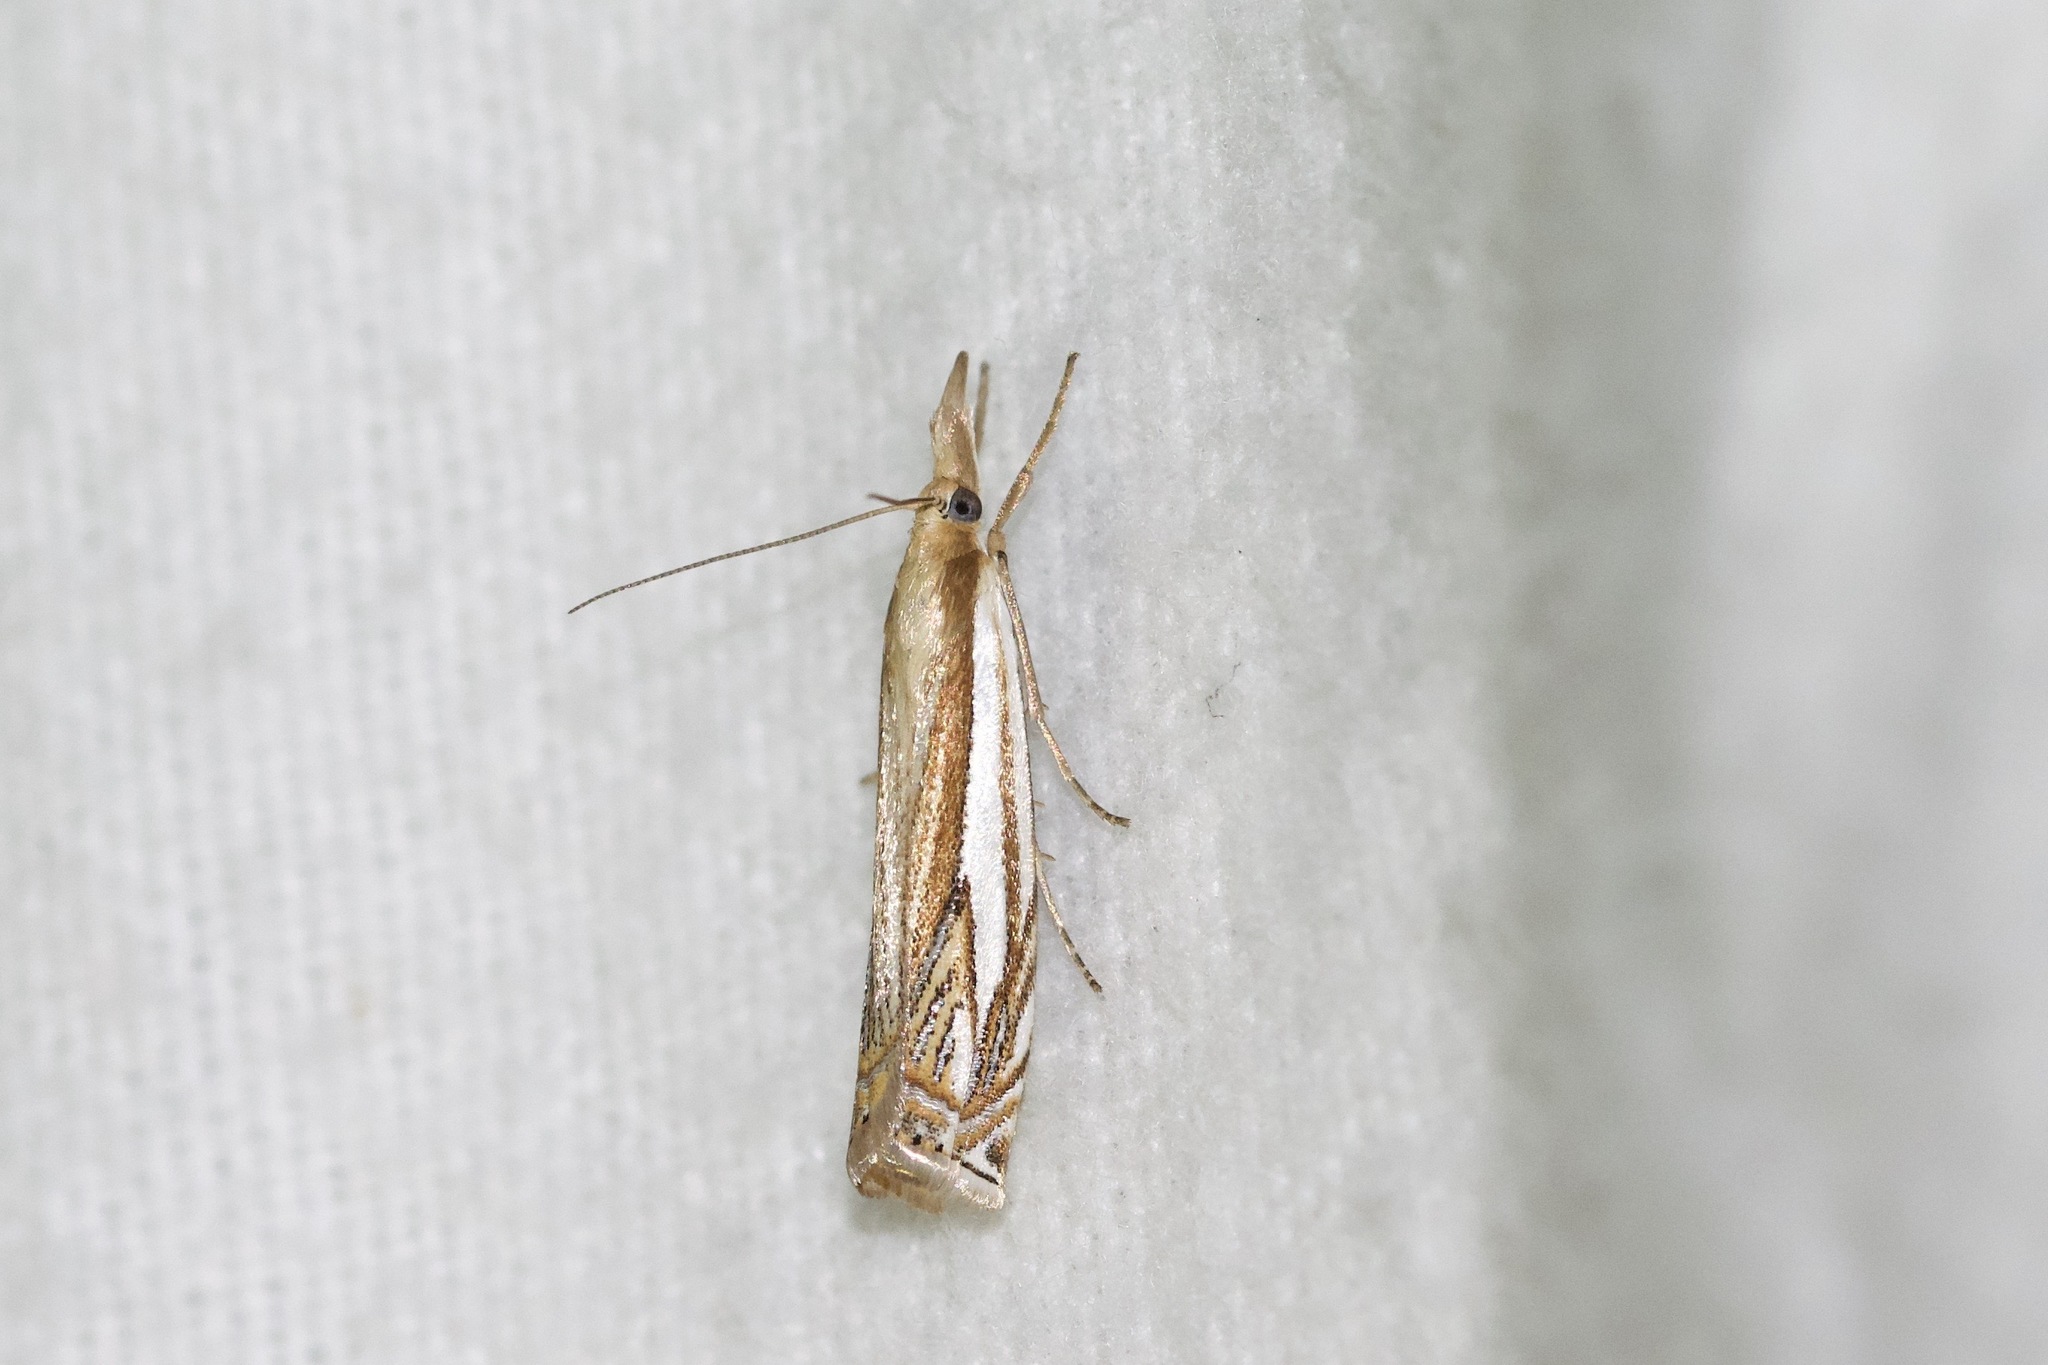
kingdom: Animalia
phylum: Arthropoda
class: Insecta
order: Lepidoptera
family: Crambidae
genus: Crambus
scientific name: Crambus saltuellus
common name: Pasture grass-veneer
